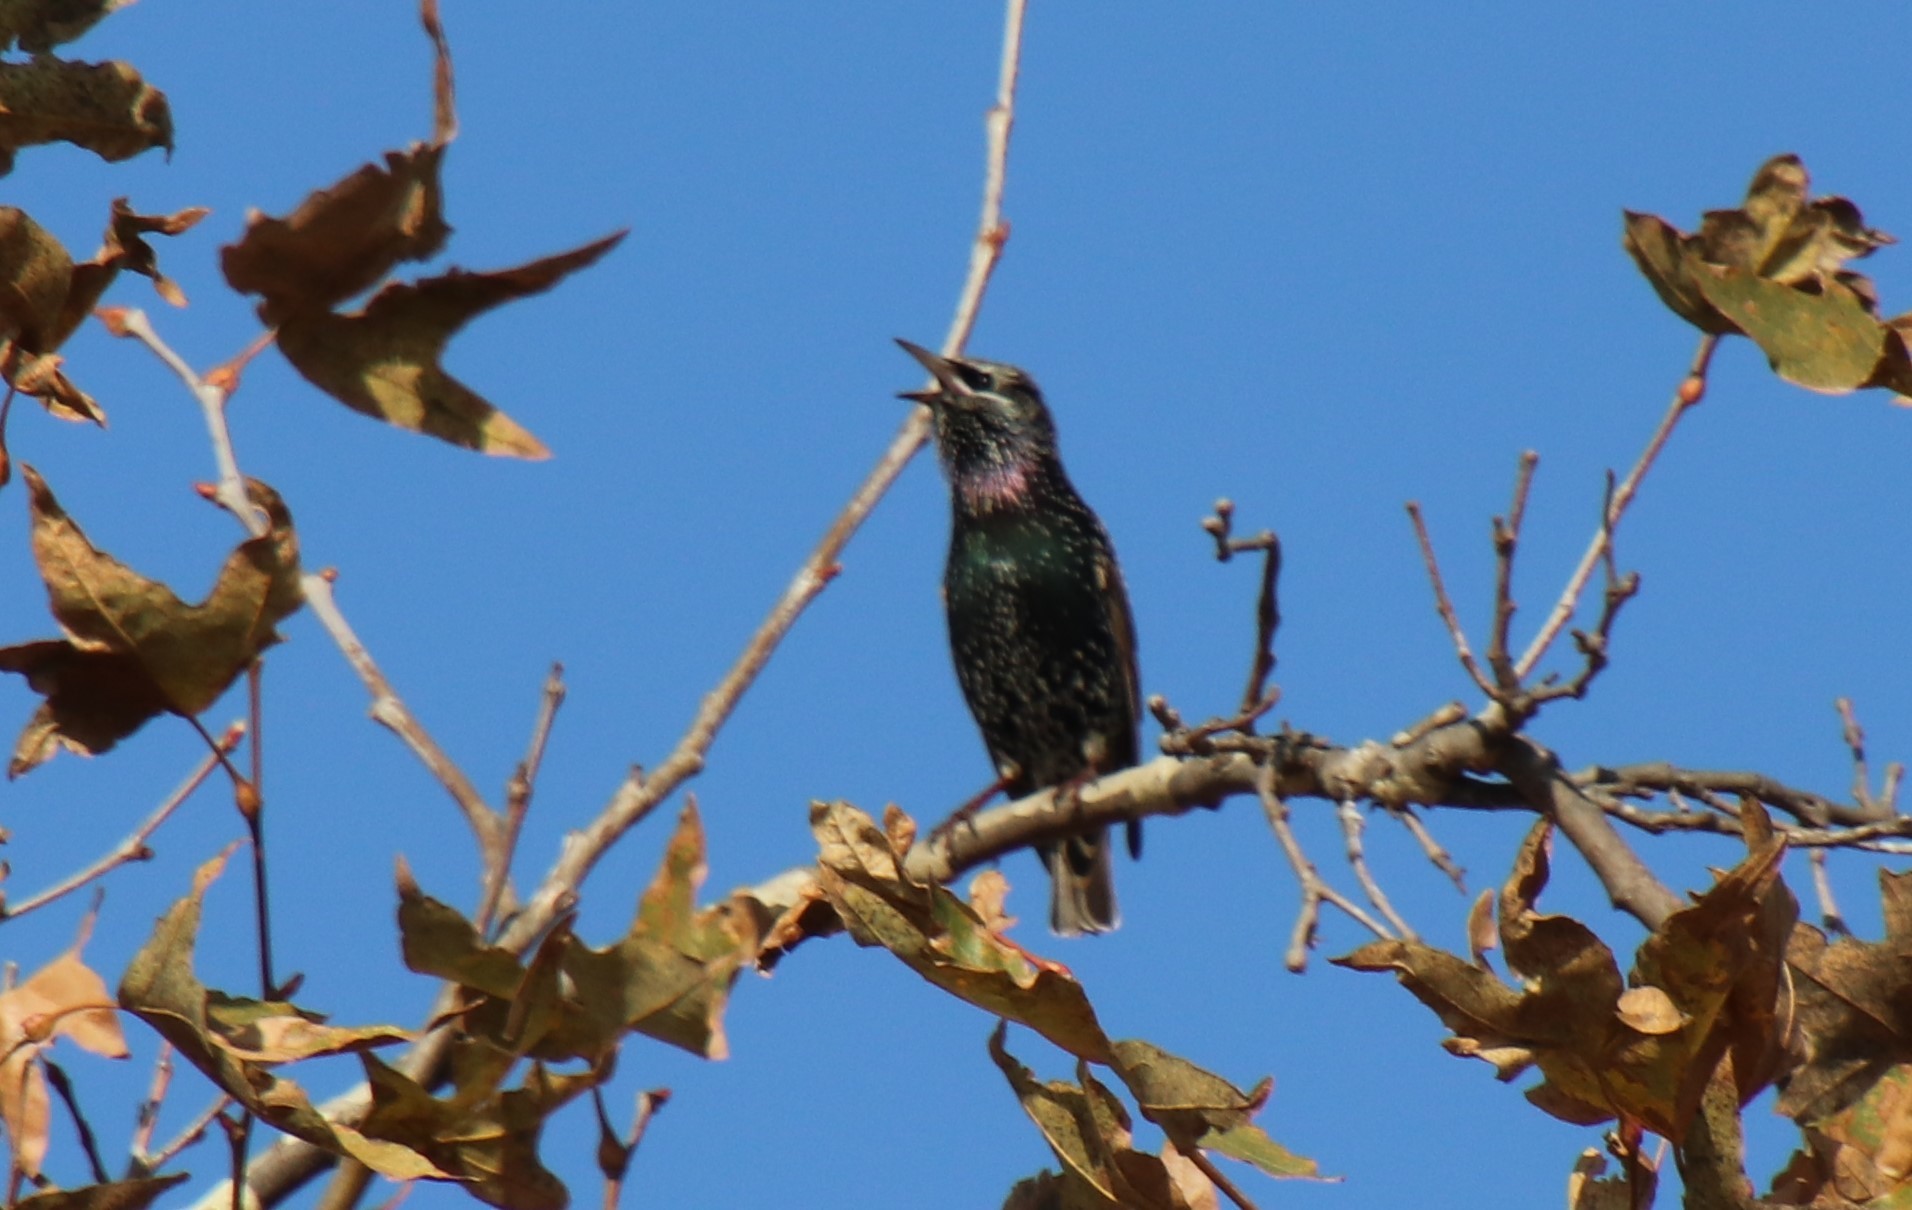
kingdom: Animalia
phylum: Chordata
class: Aves
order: Passeriformes
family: Sturnidae
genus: Sturnus
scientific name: Sturnus vulgaris
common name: Common starling
